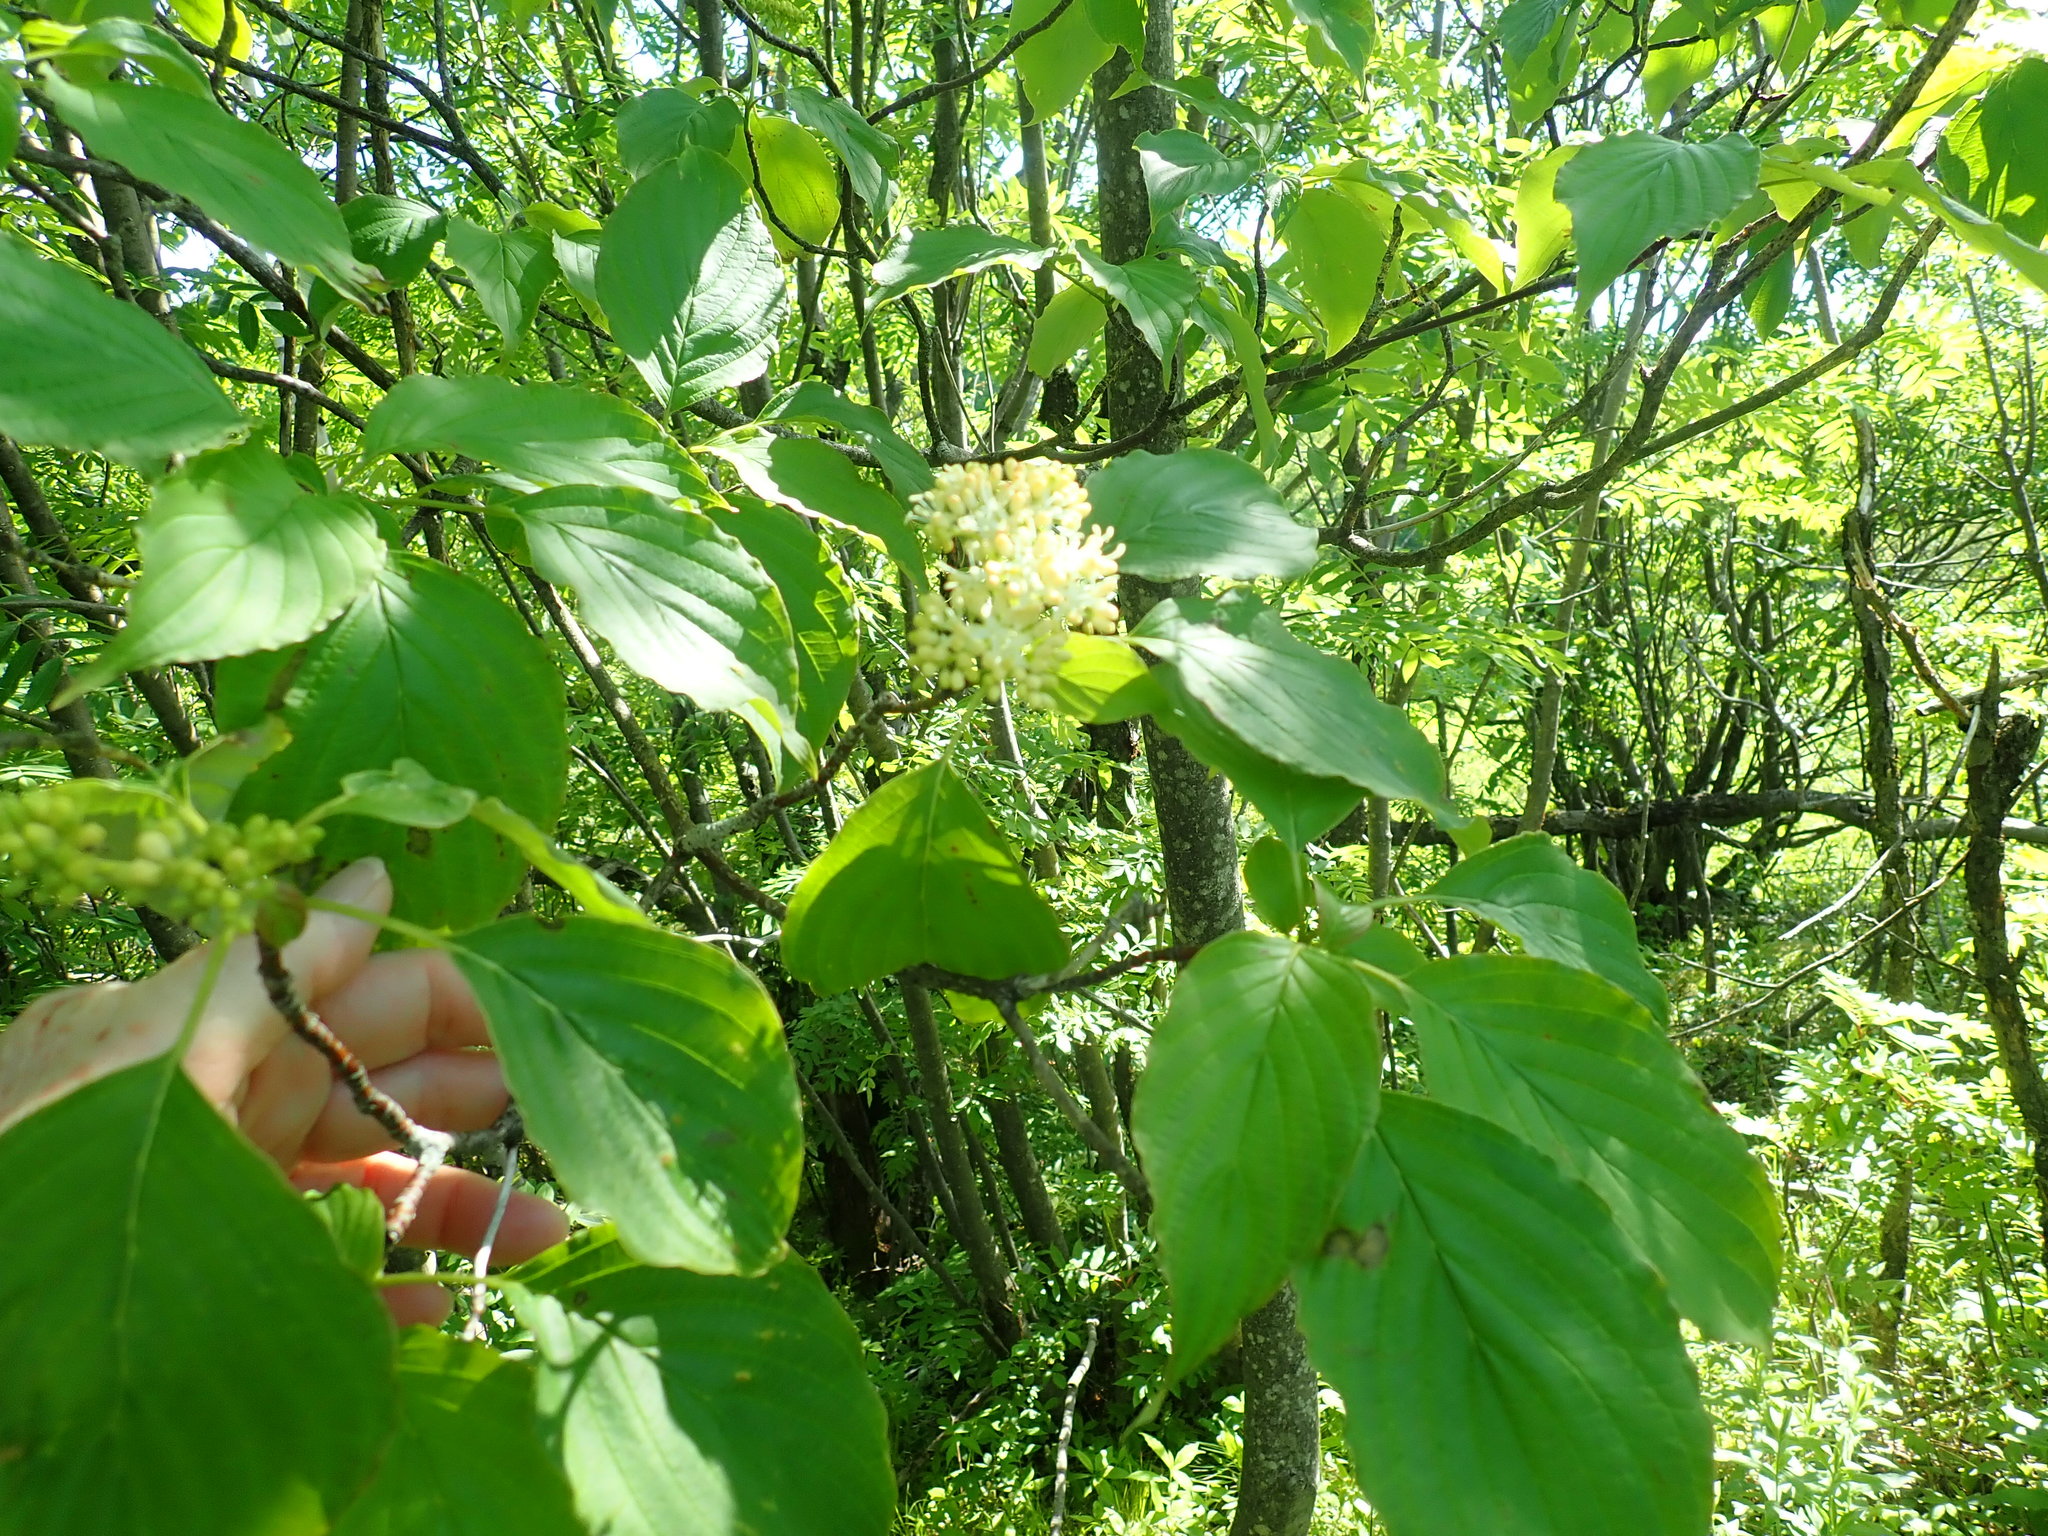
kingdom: Plantae
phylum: Tracheophyta
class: Magnoliopsida
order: Cornales
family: Cornaceae
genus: Cornus
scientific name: Cornus alternifolia
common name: Pagoda dogwood
